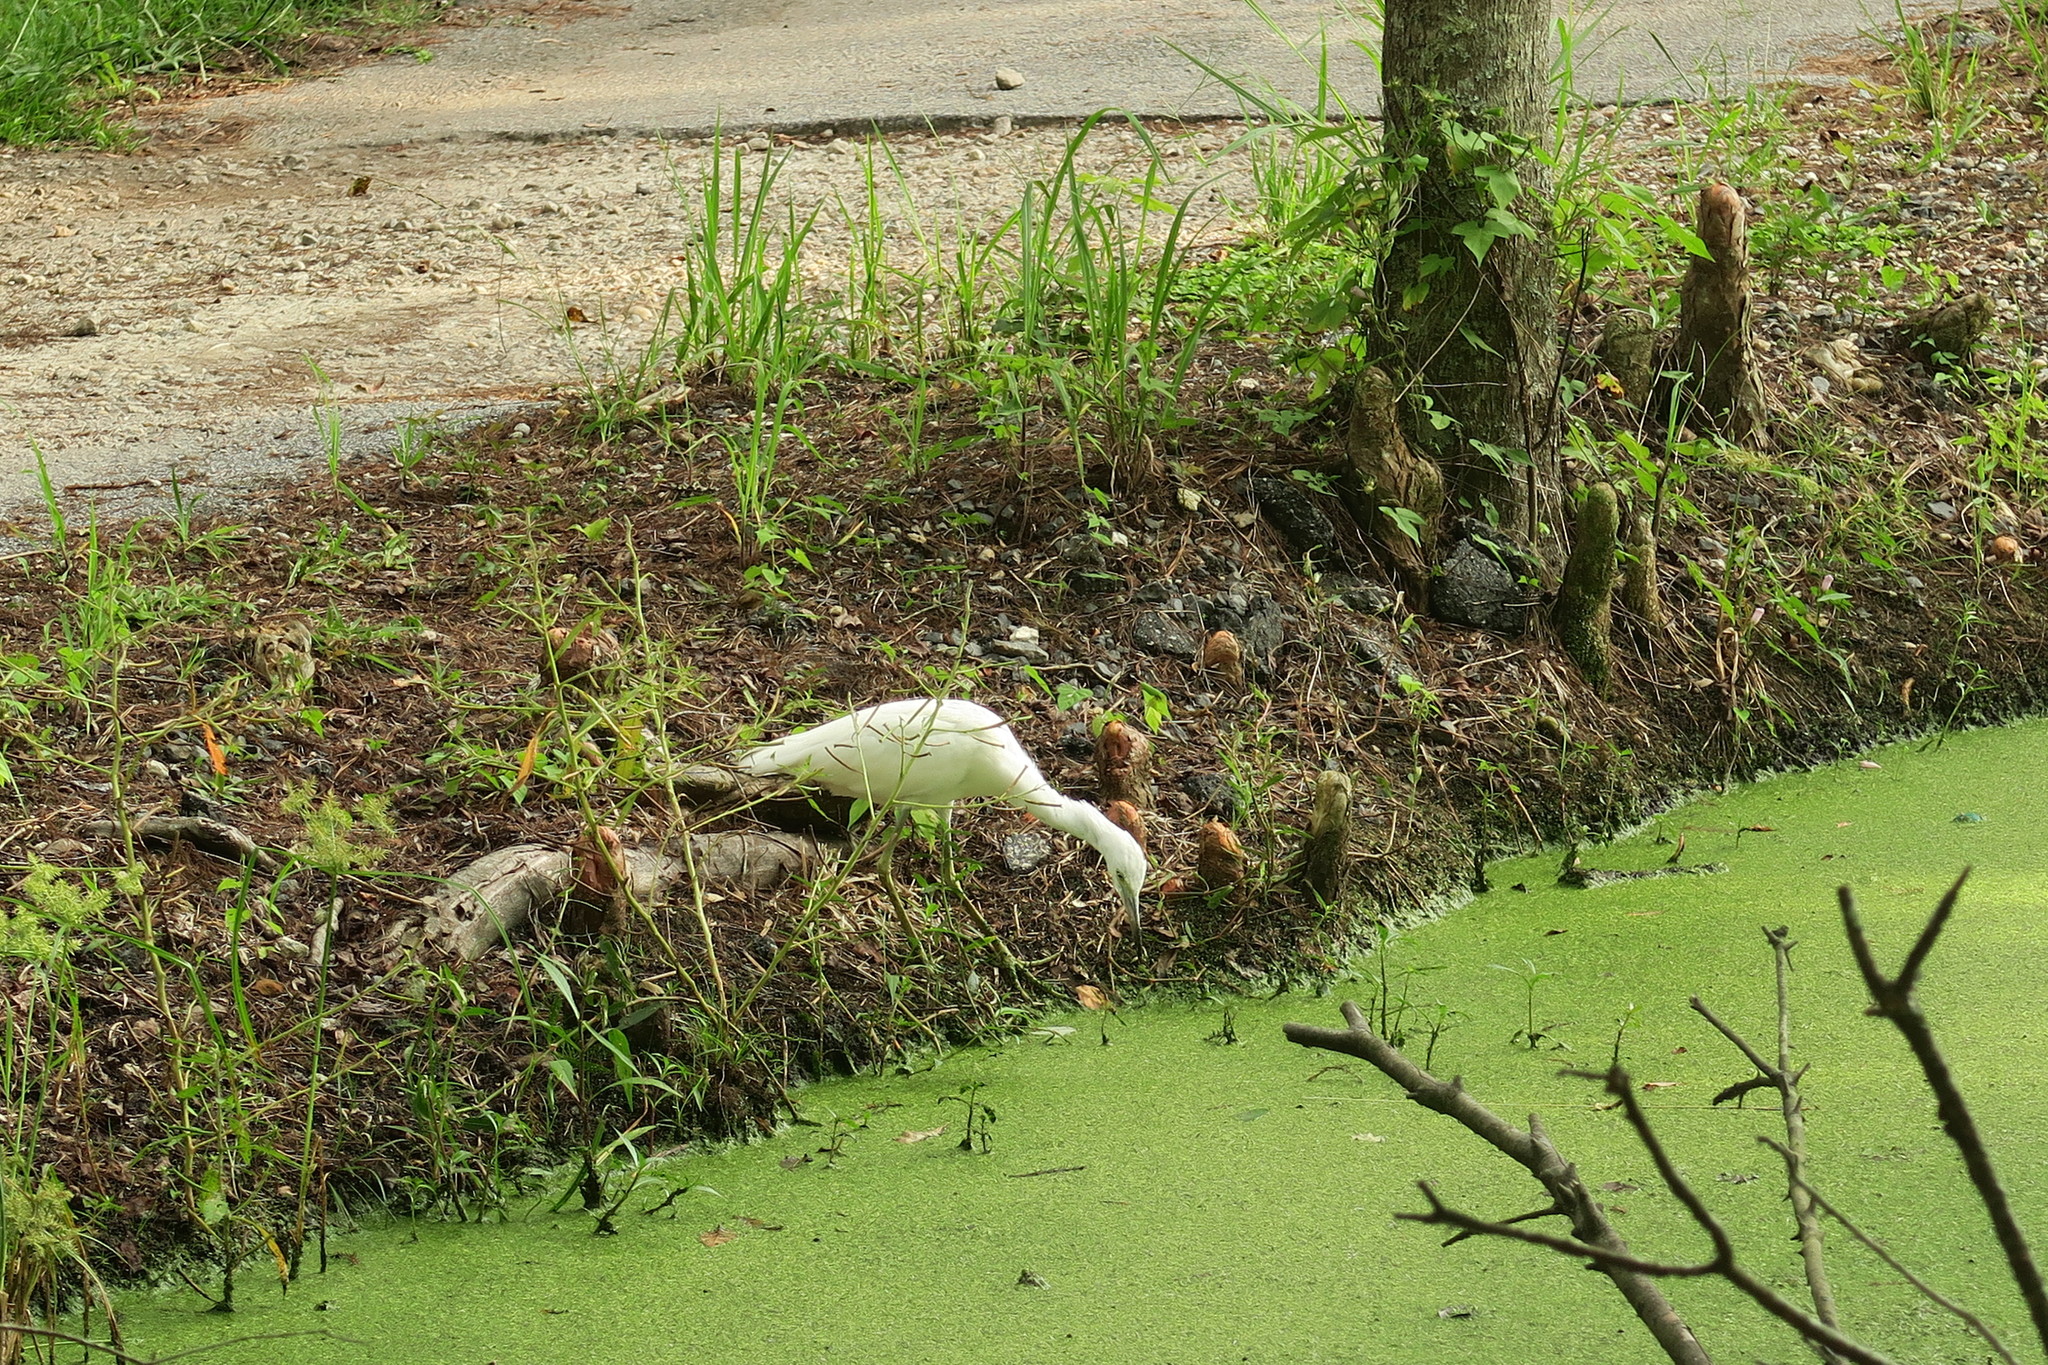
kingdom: Animalia
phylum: Chordata
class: Aves
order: Pelecaniformes
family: Ardeidae
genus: Egretta
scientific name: Egretta caerulea
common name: Little blue heron
